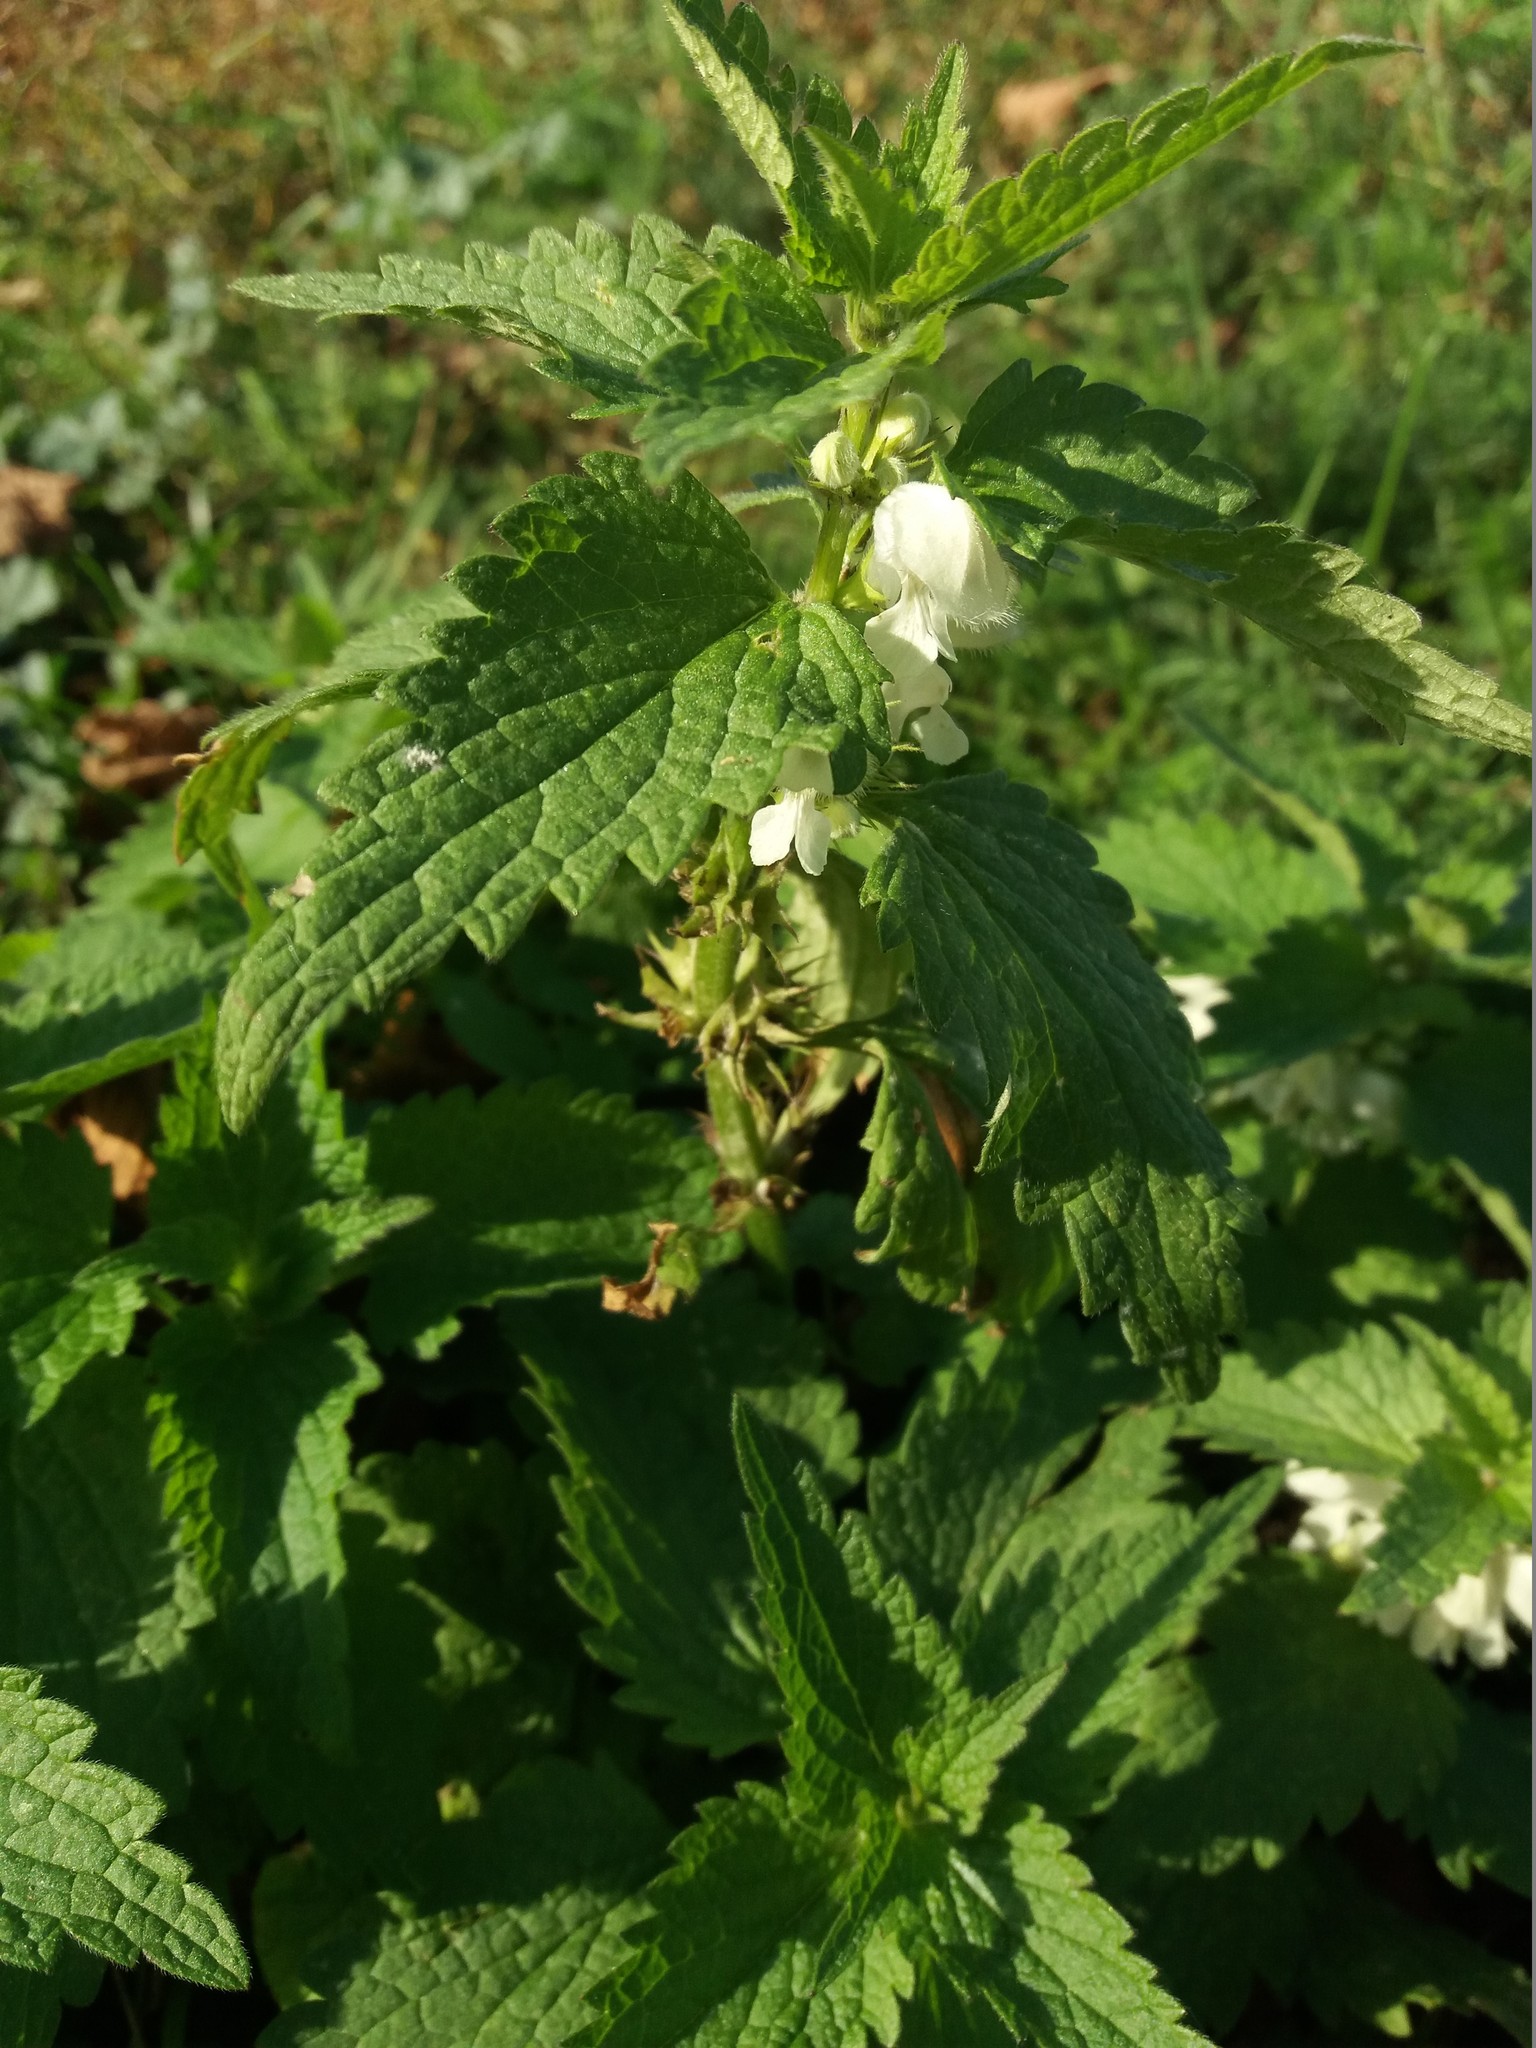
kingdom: Plantae
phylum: Tracheophyta
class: Magnoliopsida
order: Lamiales
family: Lamiaceae
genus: Lamium
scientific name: Lamium album
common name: White dead-nettle
